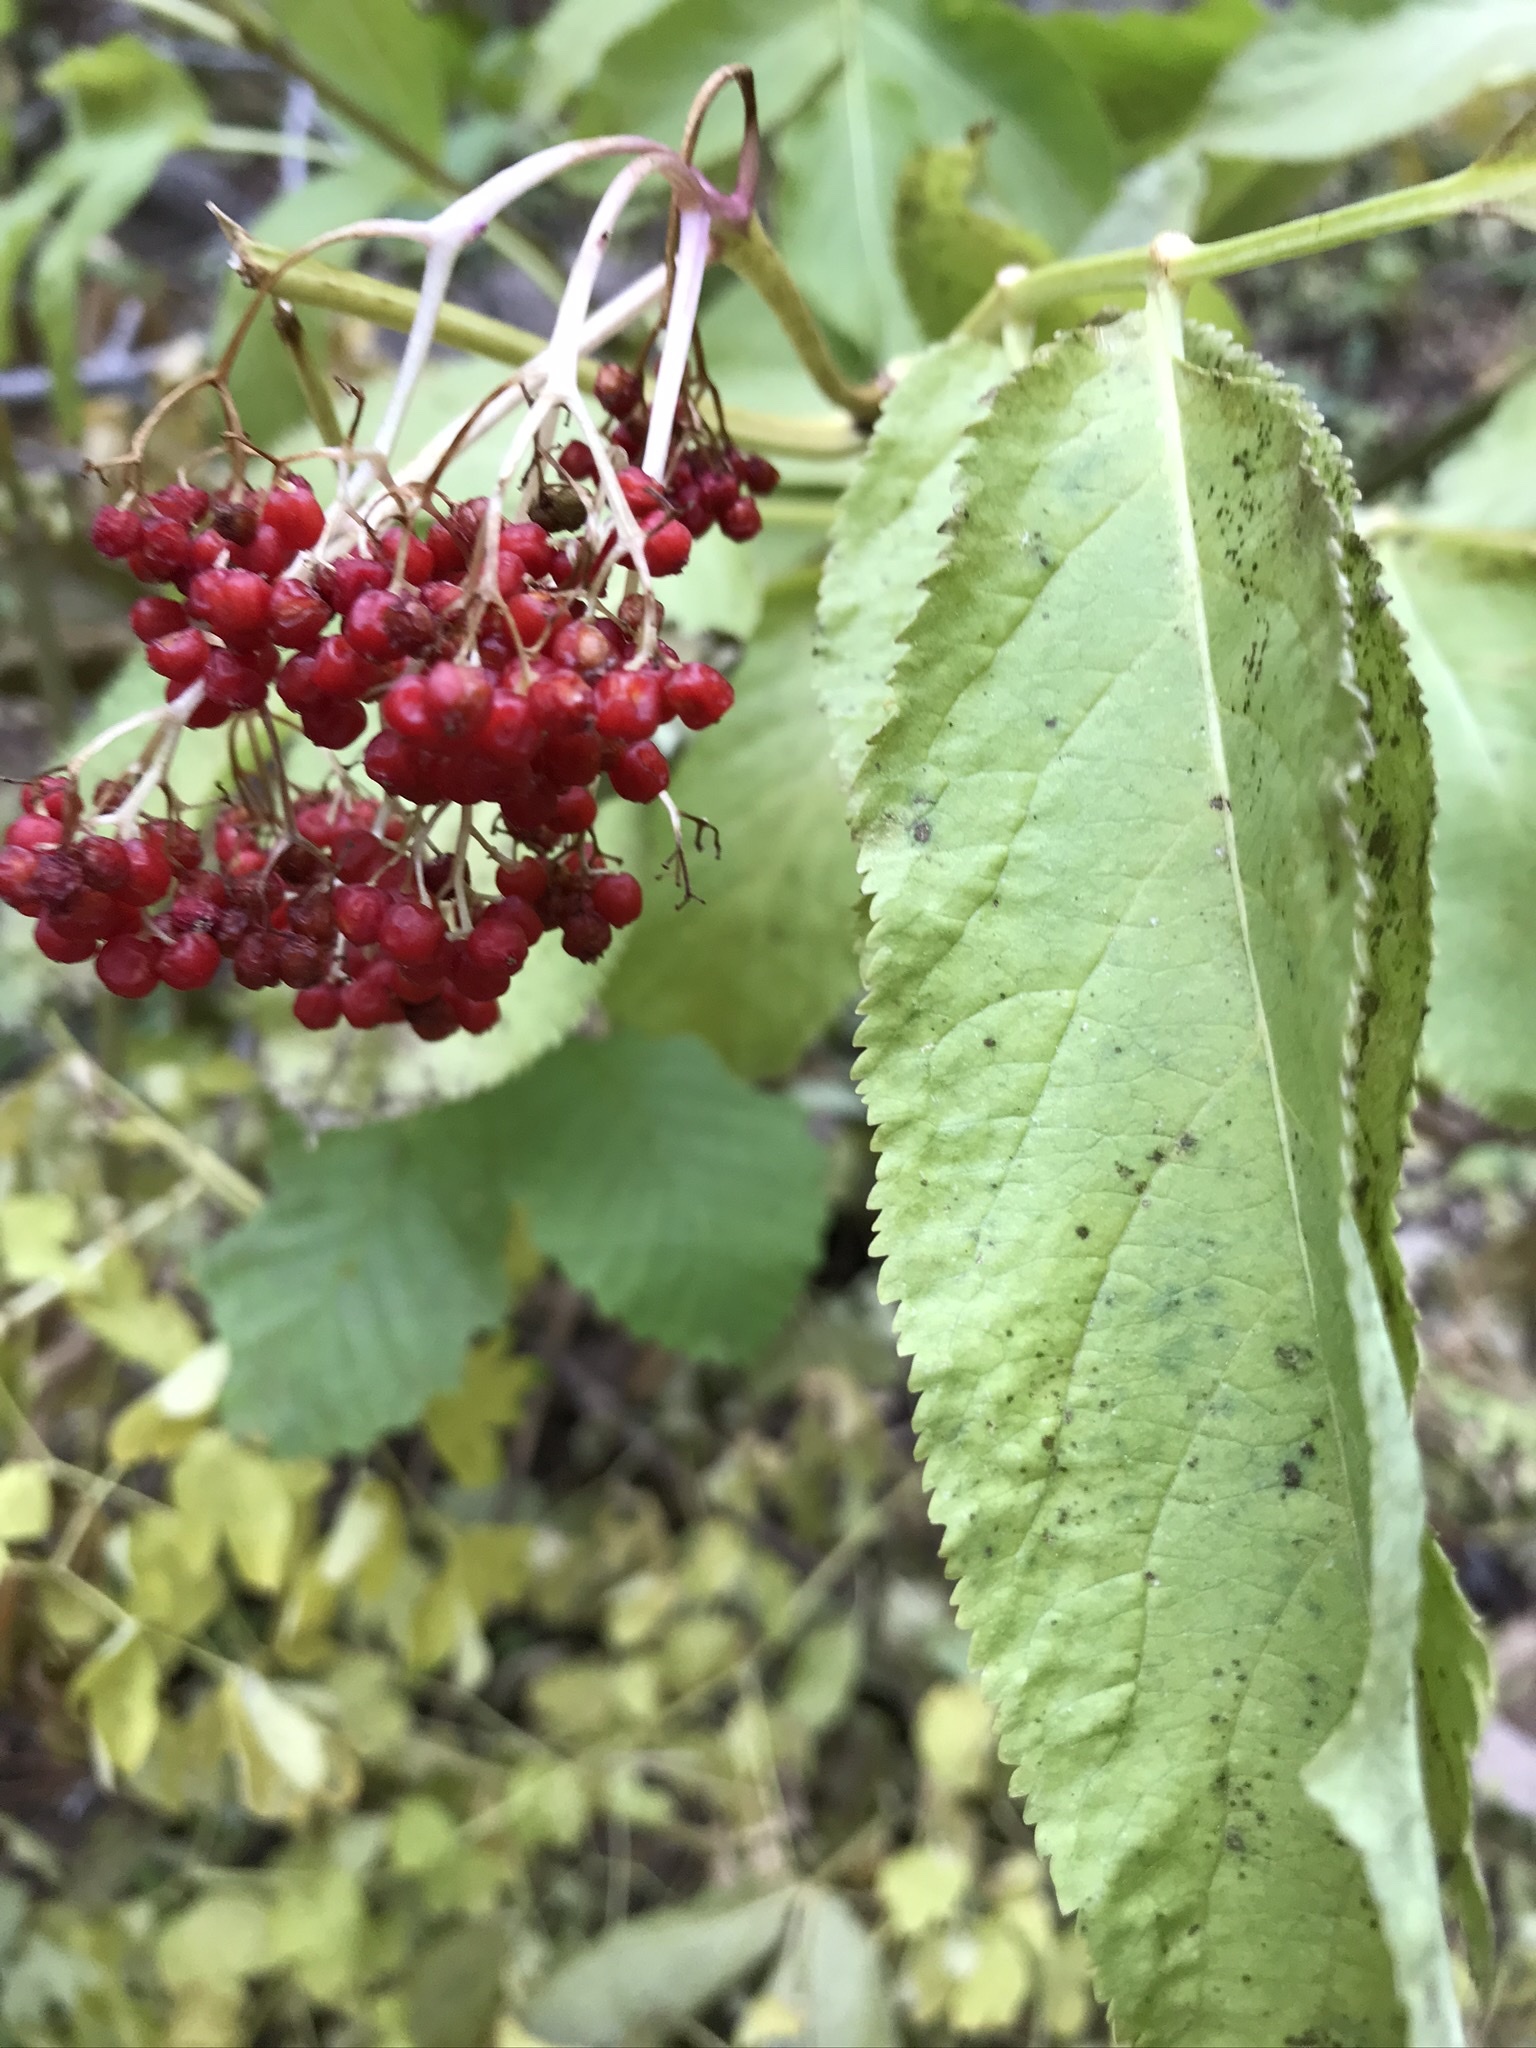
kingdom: Plantae
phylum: Tracheophyta
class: Magnoliopsida
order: Dipsacales
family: Viburnaceae
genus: Sambucus
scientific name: Sambucus racemosa
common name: Red-berried elder
